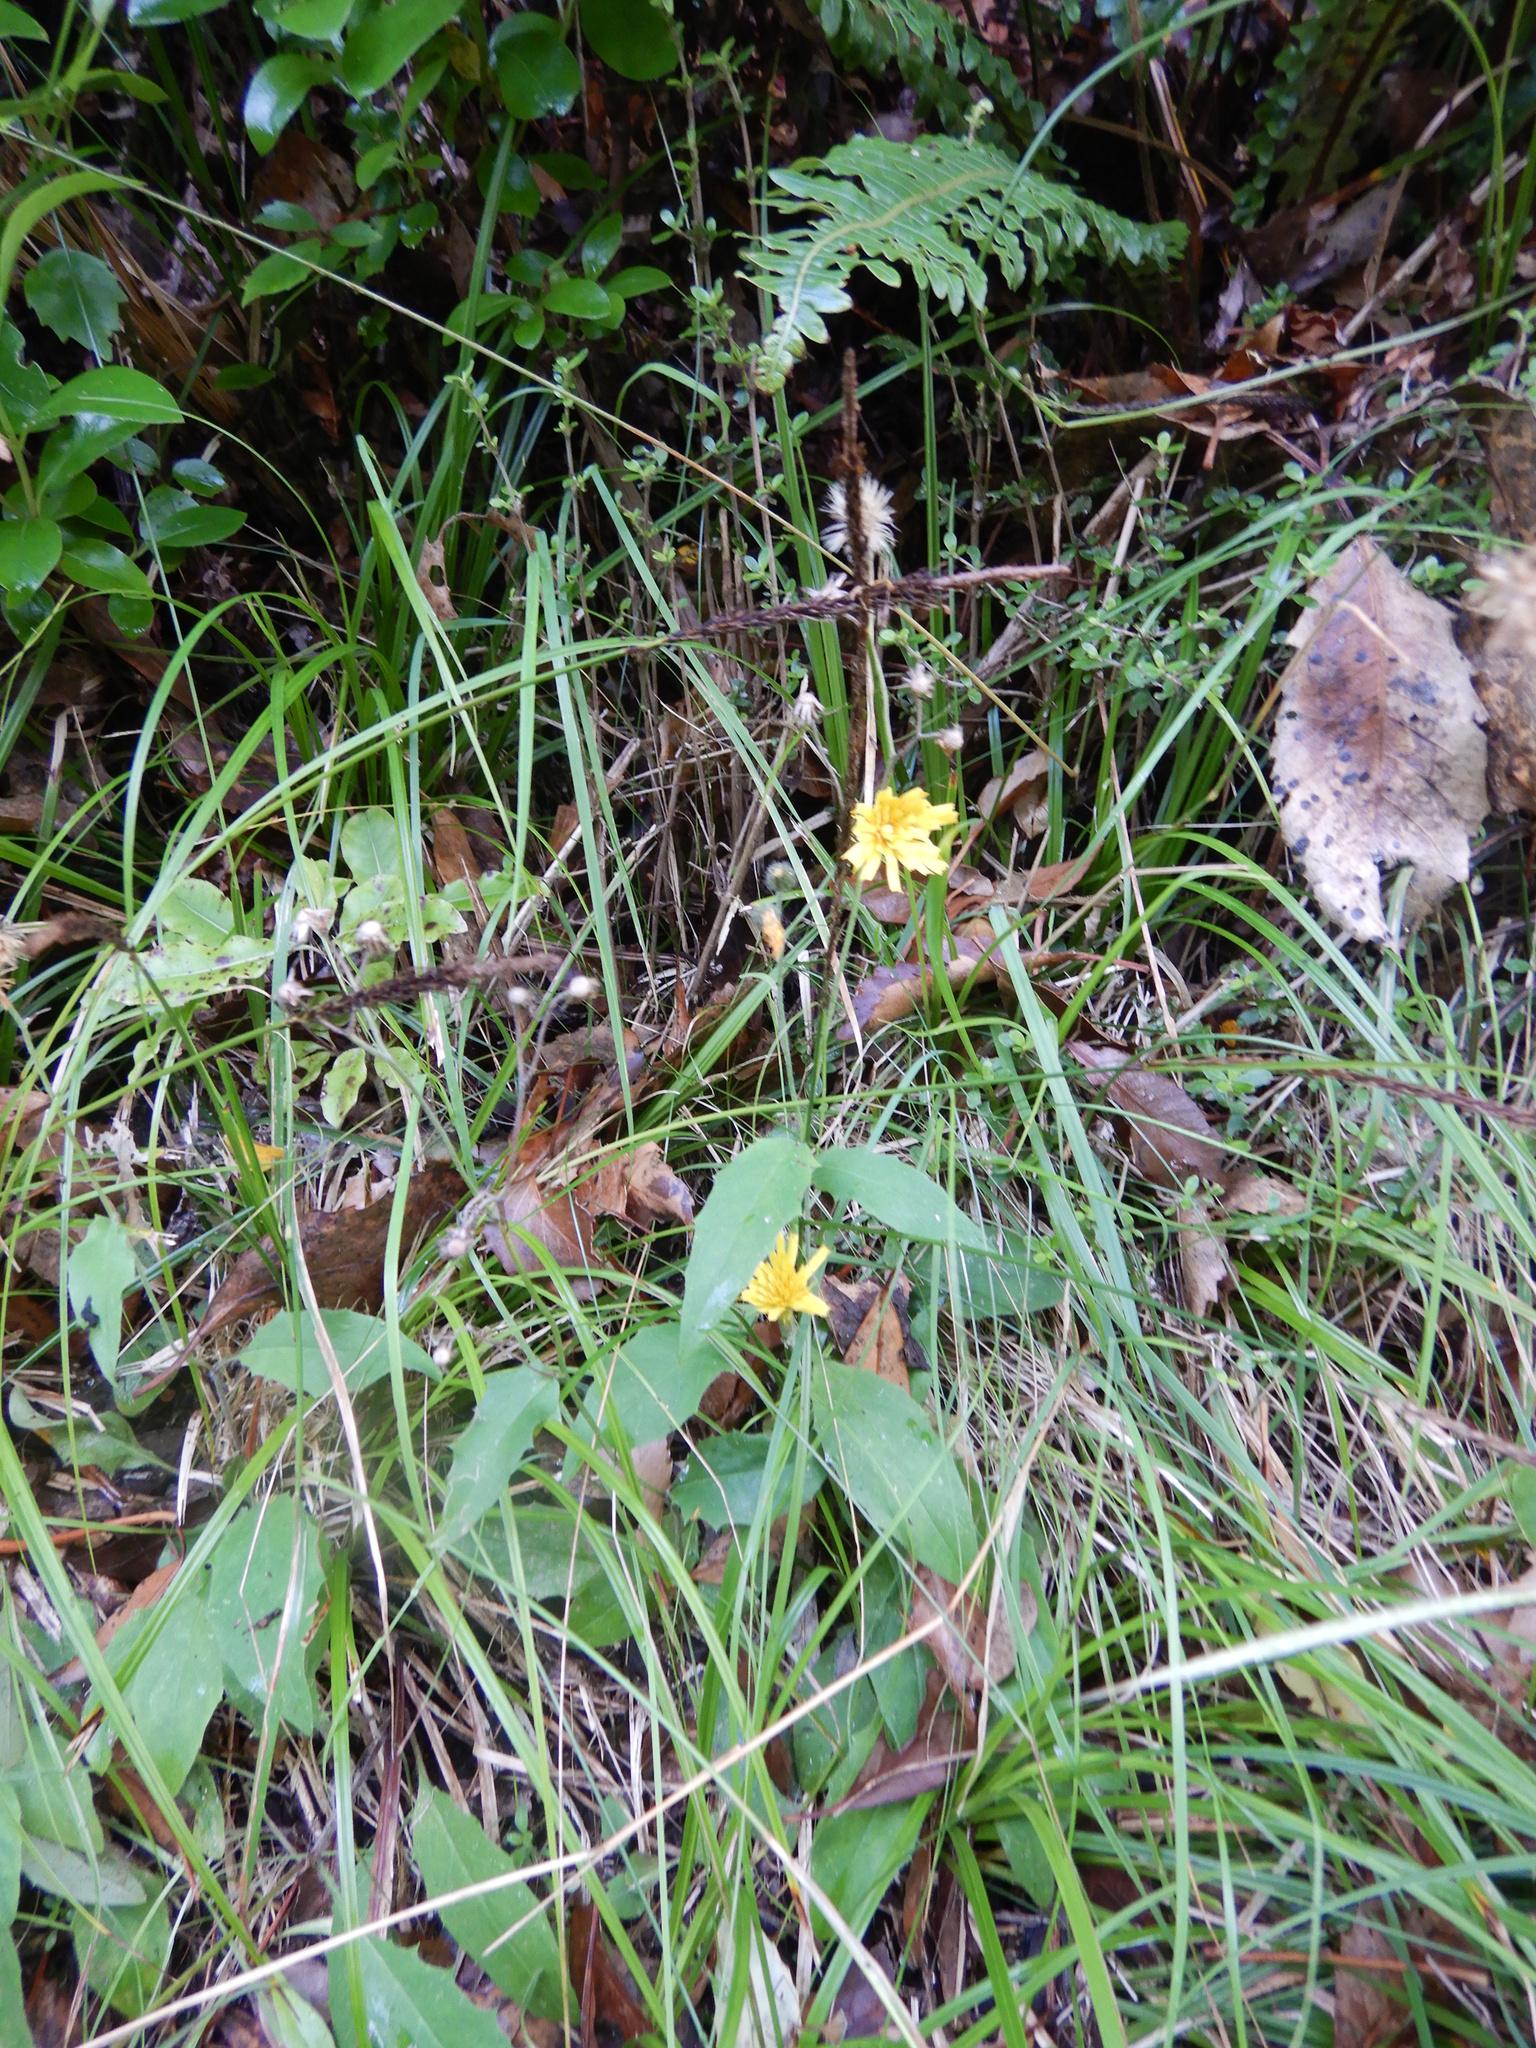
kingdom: Plantae
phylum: Tracheophyta
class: Magnoliopsida
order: Asterales
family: Asteraceae
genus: Hieracium
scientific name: Hieracium lepidulum
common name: Irregular-toothed hawkweed
